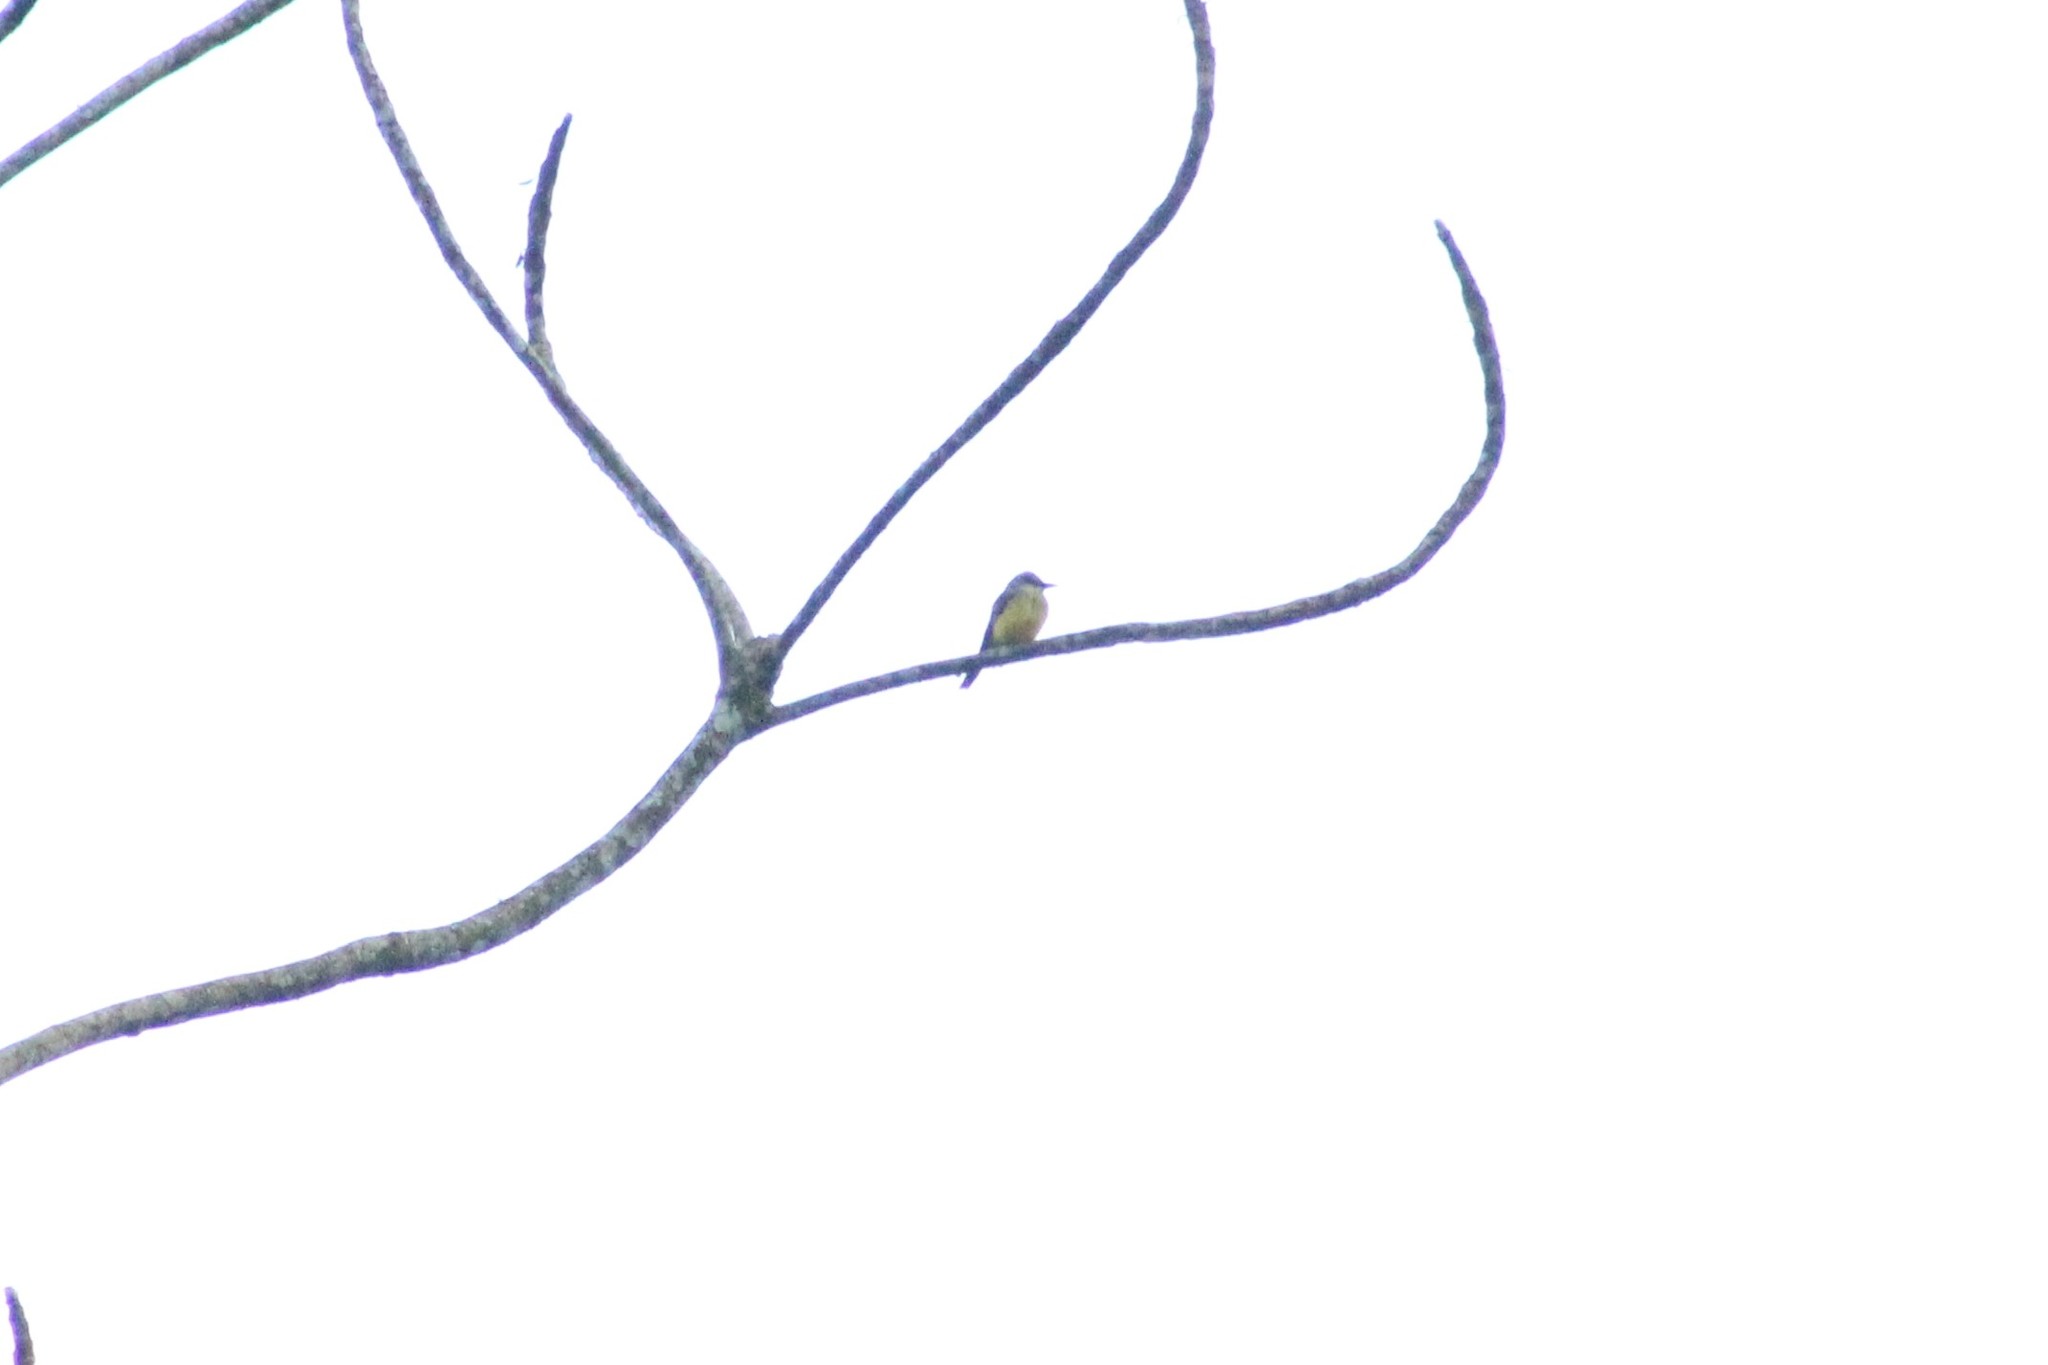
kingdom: Animalia
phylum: Chordata
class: Aves
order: Passeriformes
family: Tyrannidae
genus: Tyrannus
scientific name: Tyrannus melancholicus
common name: Tropical kingbird
